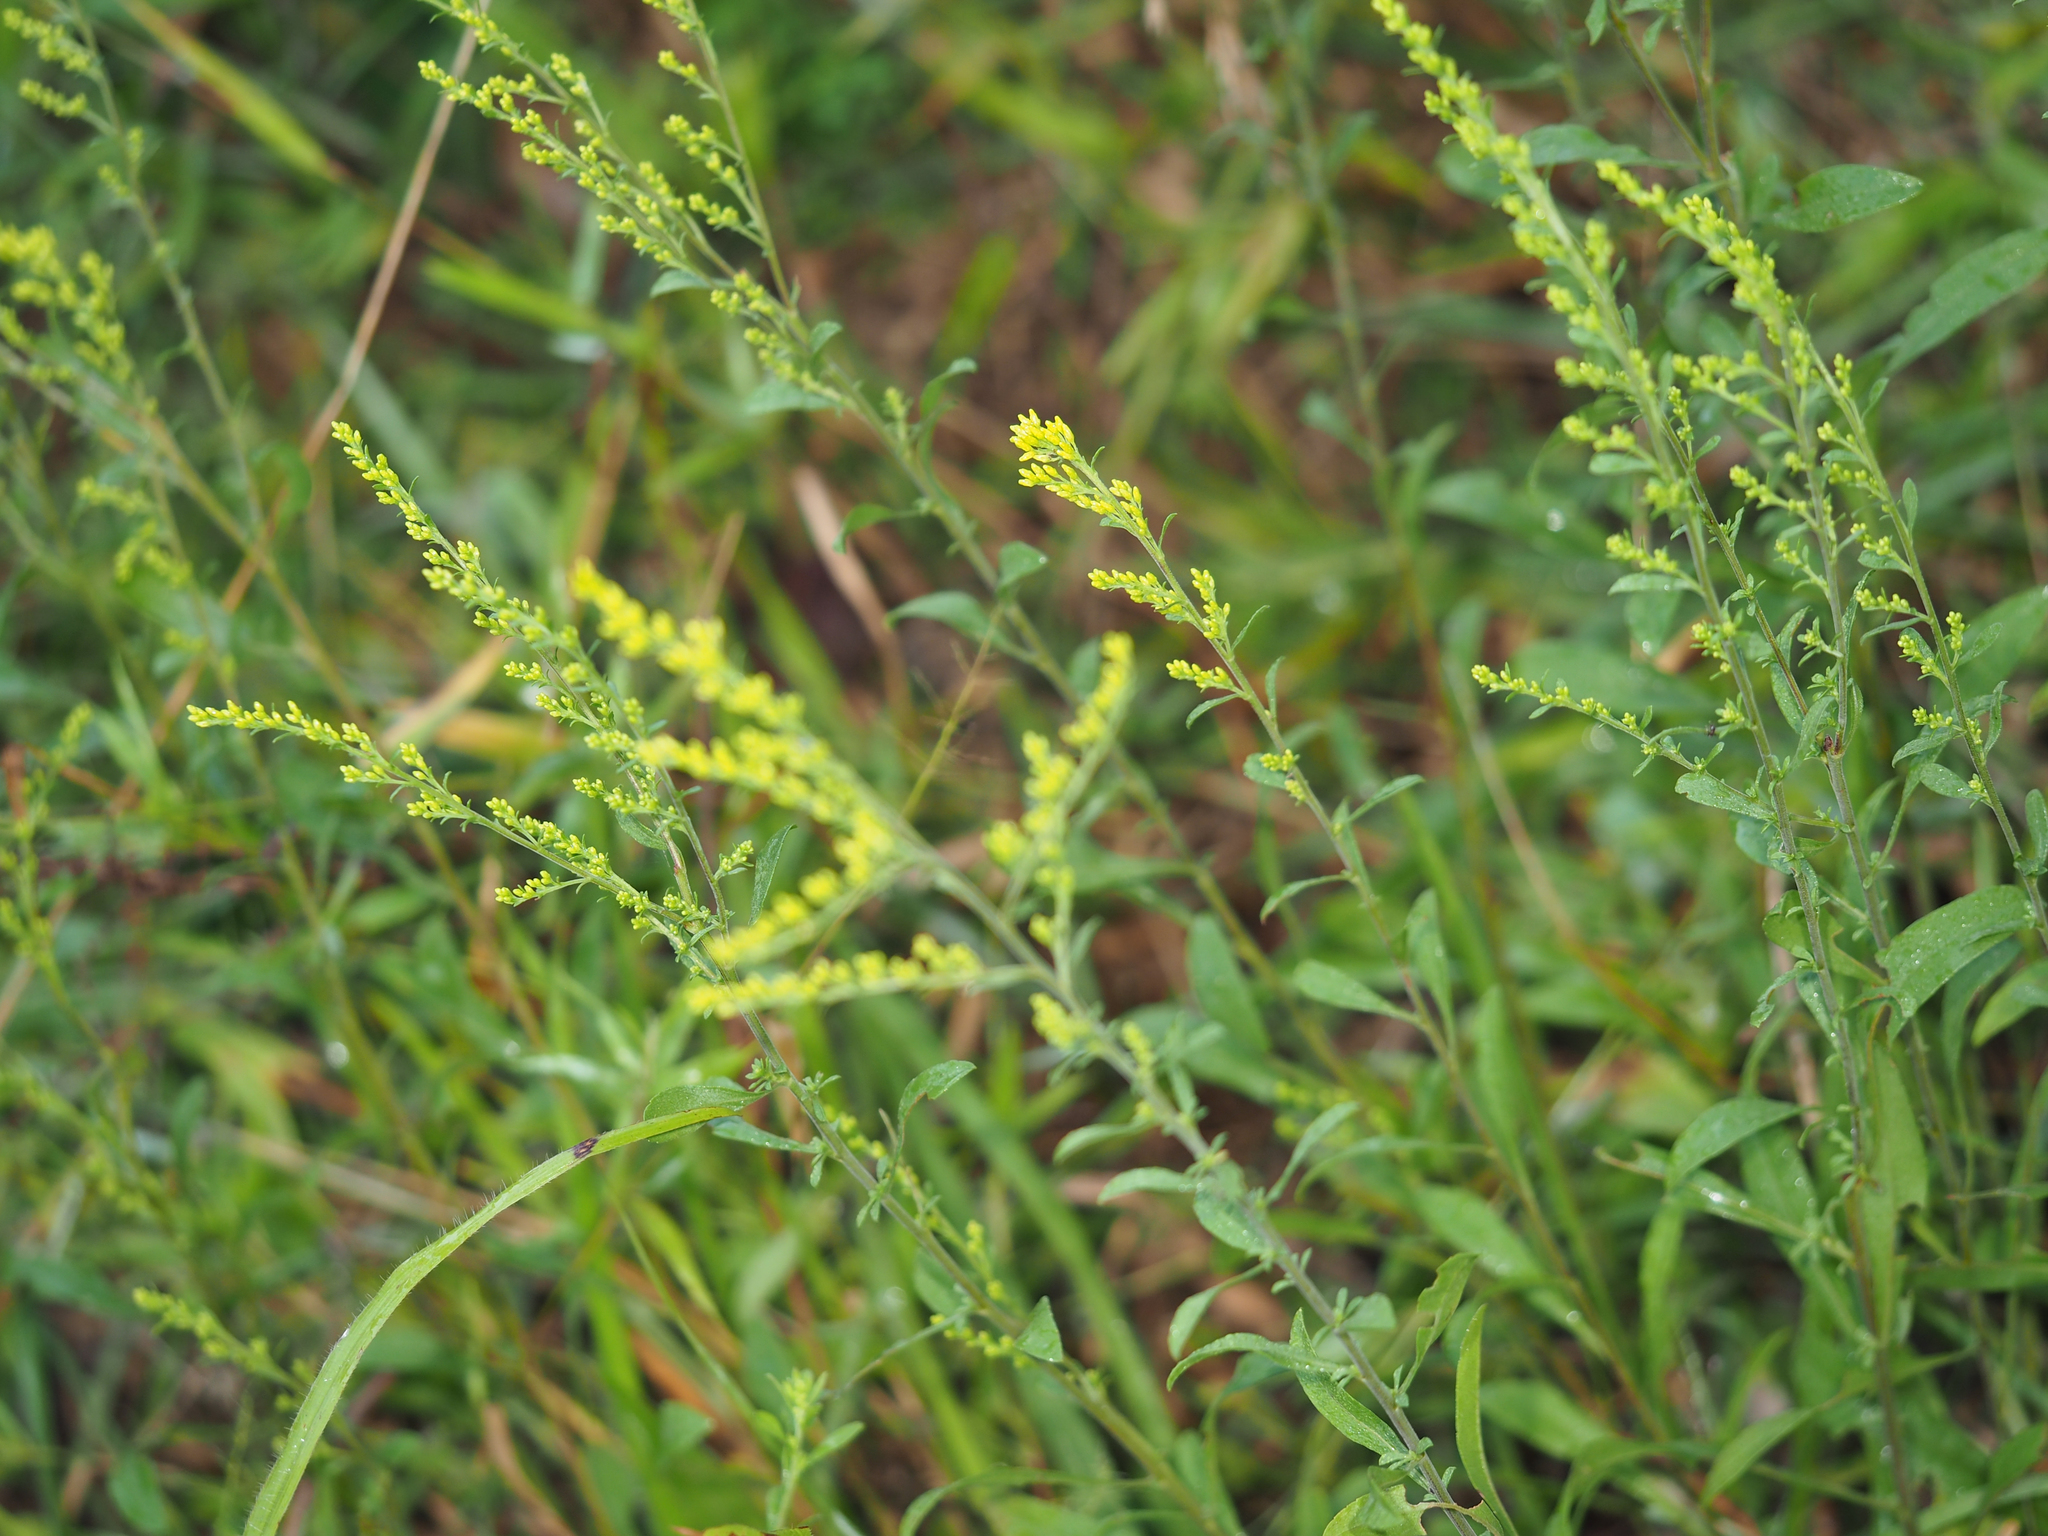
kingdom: Plantae
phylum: Tracheophyta
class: Magnoliopsida
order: Asterales
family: Asteraceae
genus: Solidago
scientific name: Solidago nemoralis
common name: Grey goldenrod
